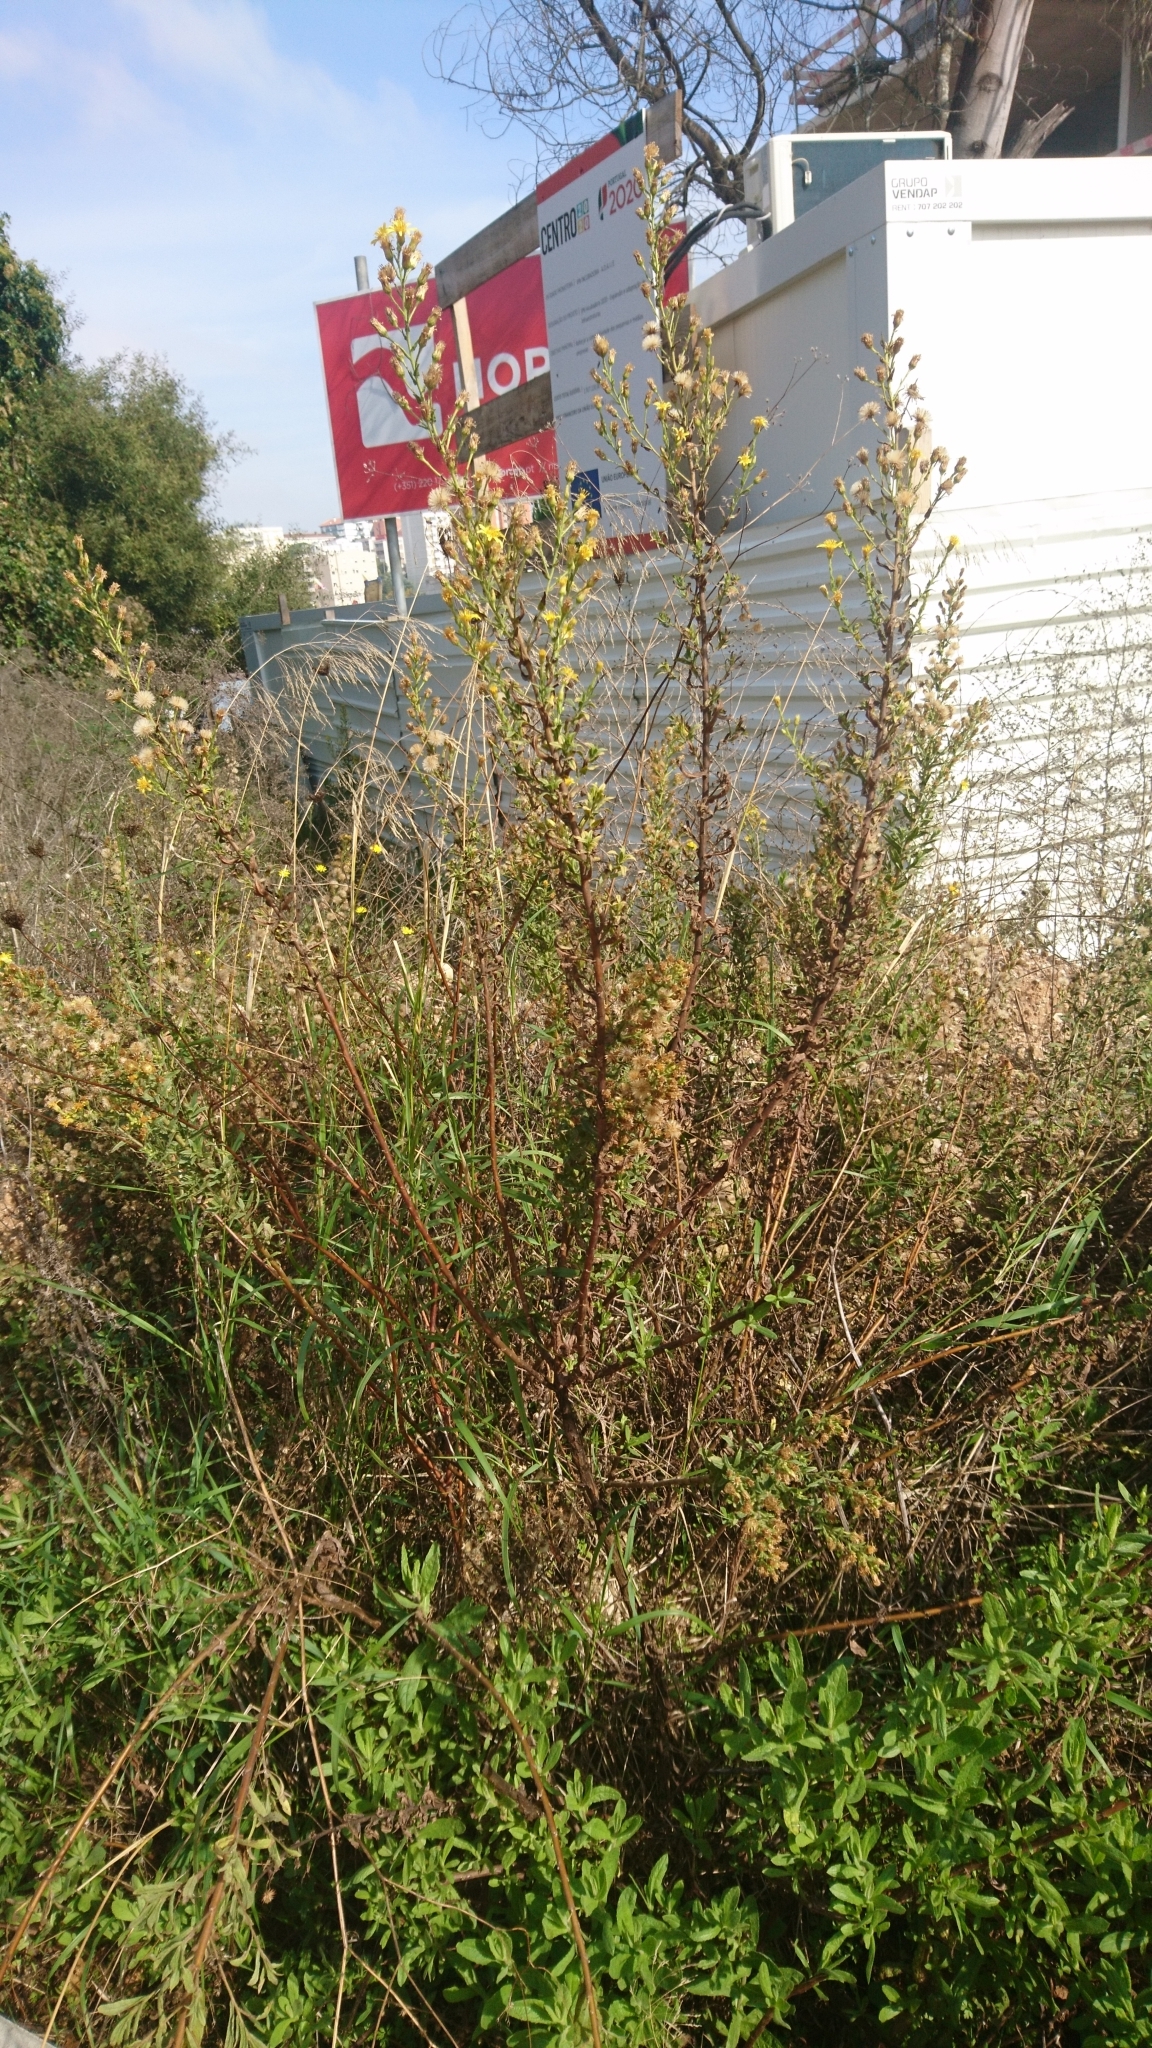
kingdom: Plantae
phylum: Tracheophyta
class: Magnoliopsida
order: Asterales
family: Asteraceae
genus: Dittrichia
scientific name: Dittrichia viscosa
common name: Woody fleabane
